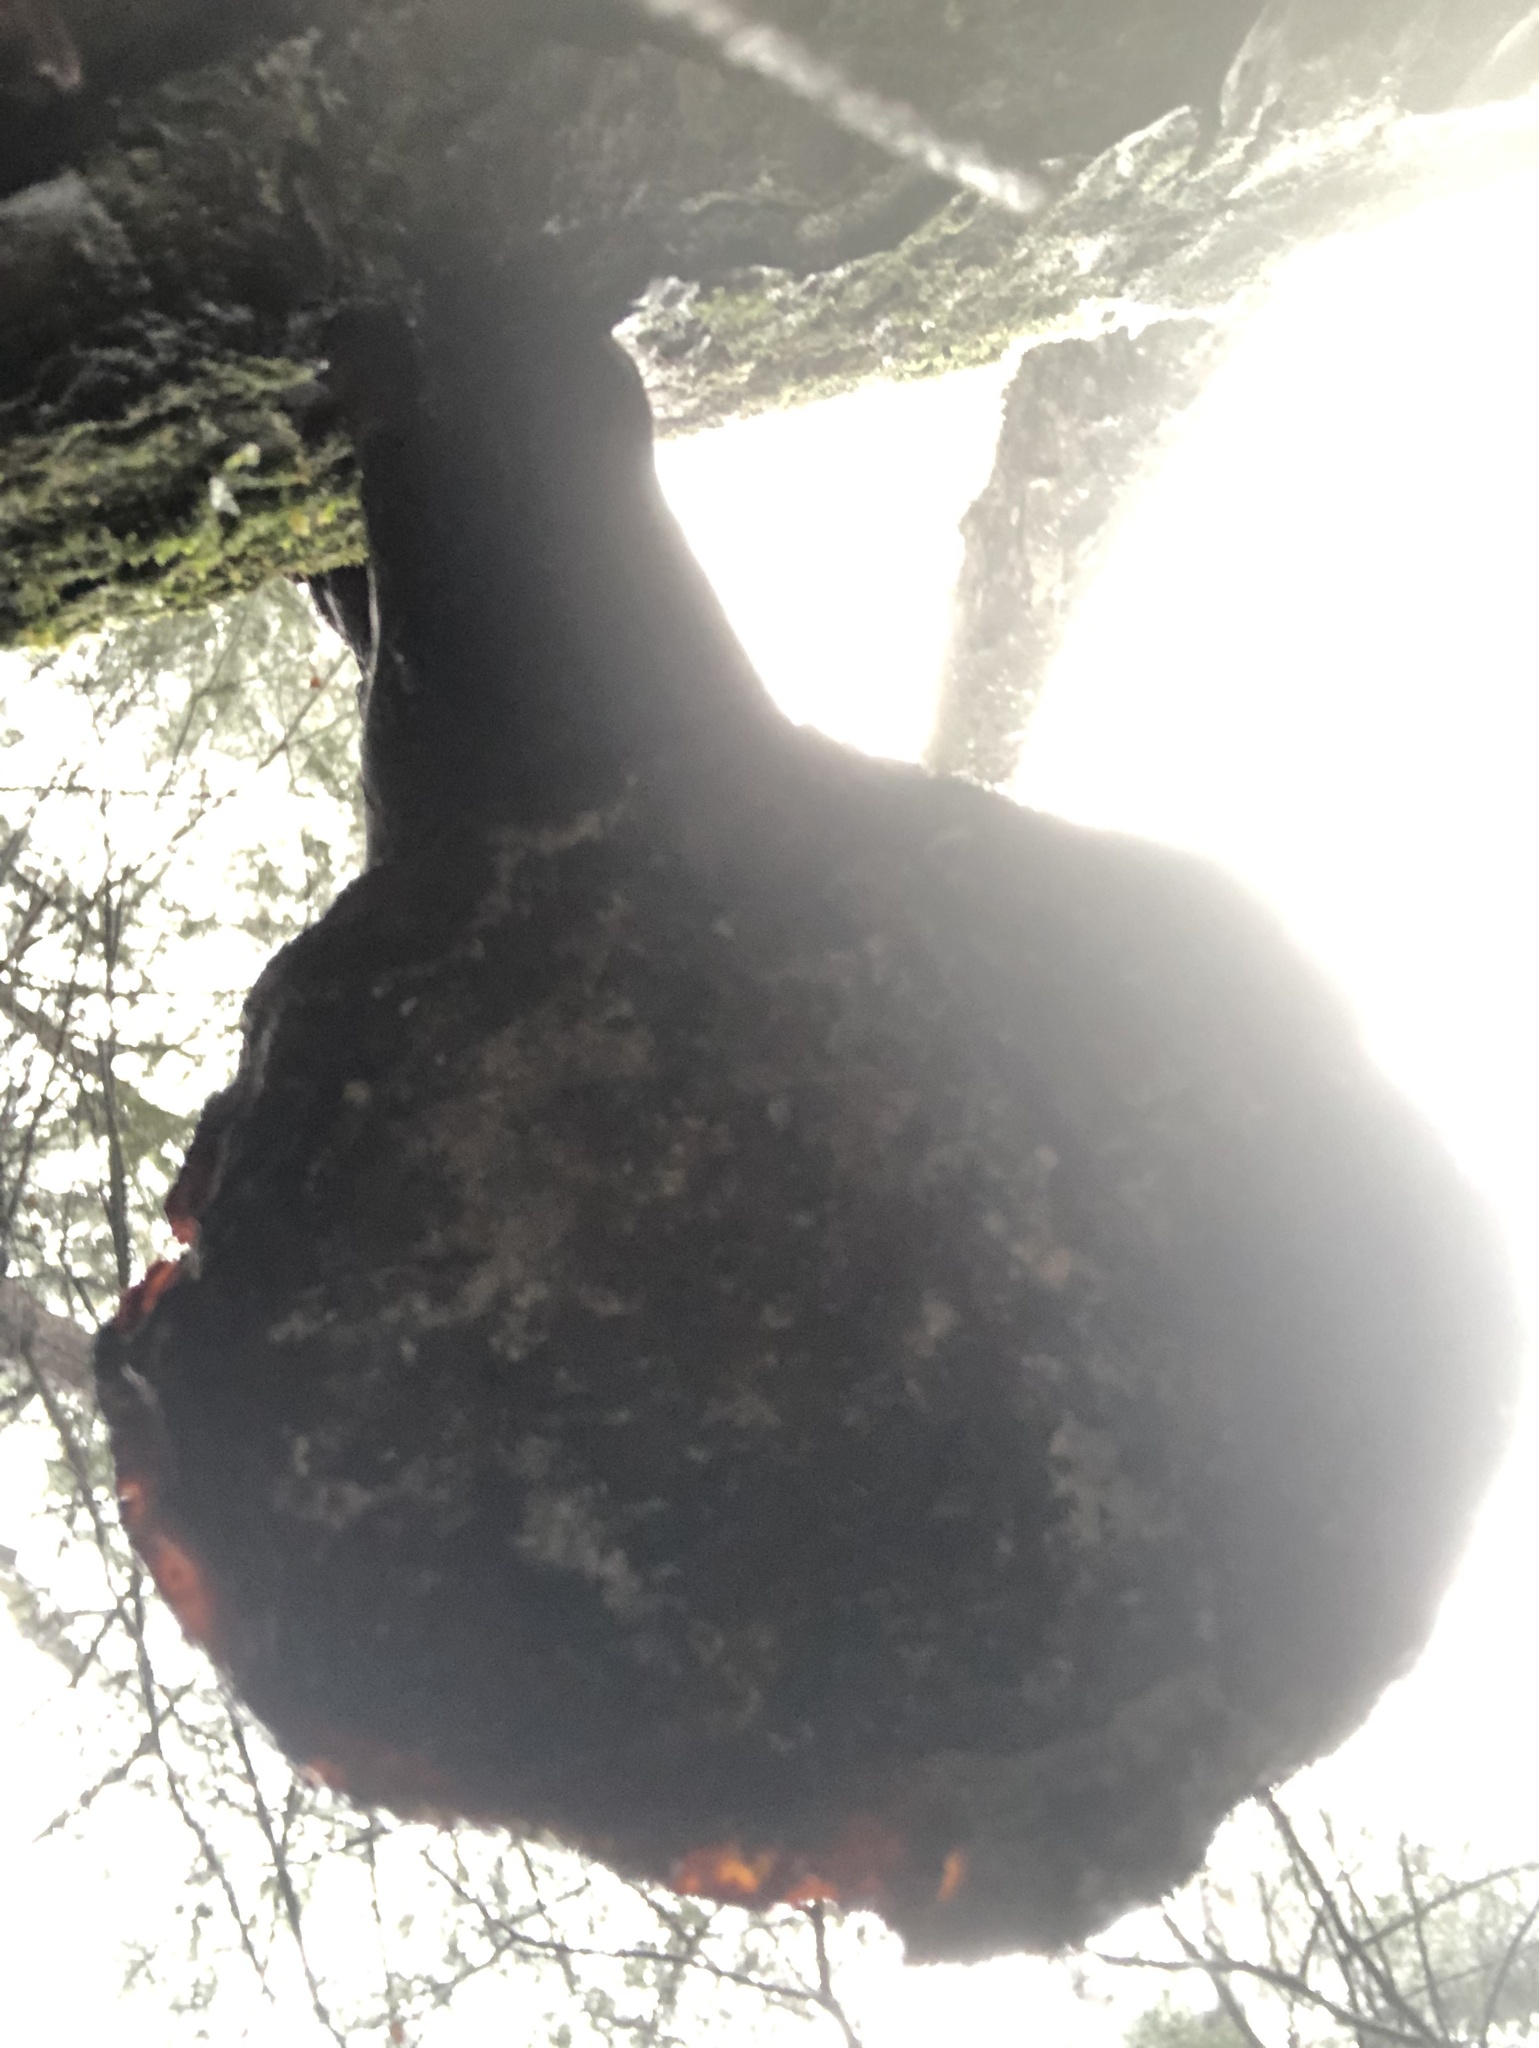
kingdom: Fungi
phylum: Basidiomycota
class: Agaricomycetes
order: Polyporales
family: Polyporaceae
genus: Ganoderma
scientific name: Ganoderma tsugae
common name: Hemlock varnish shelf
